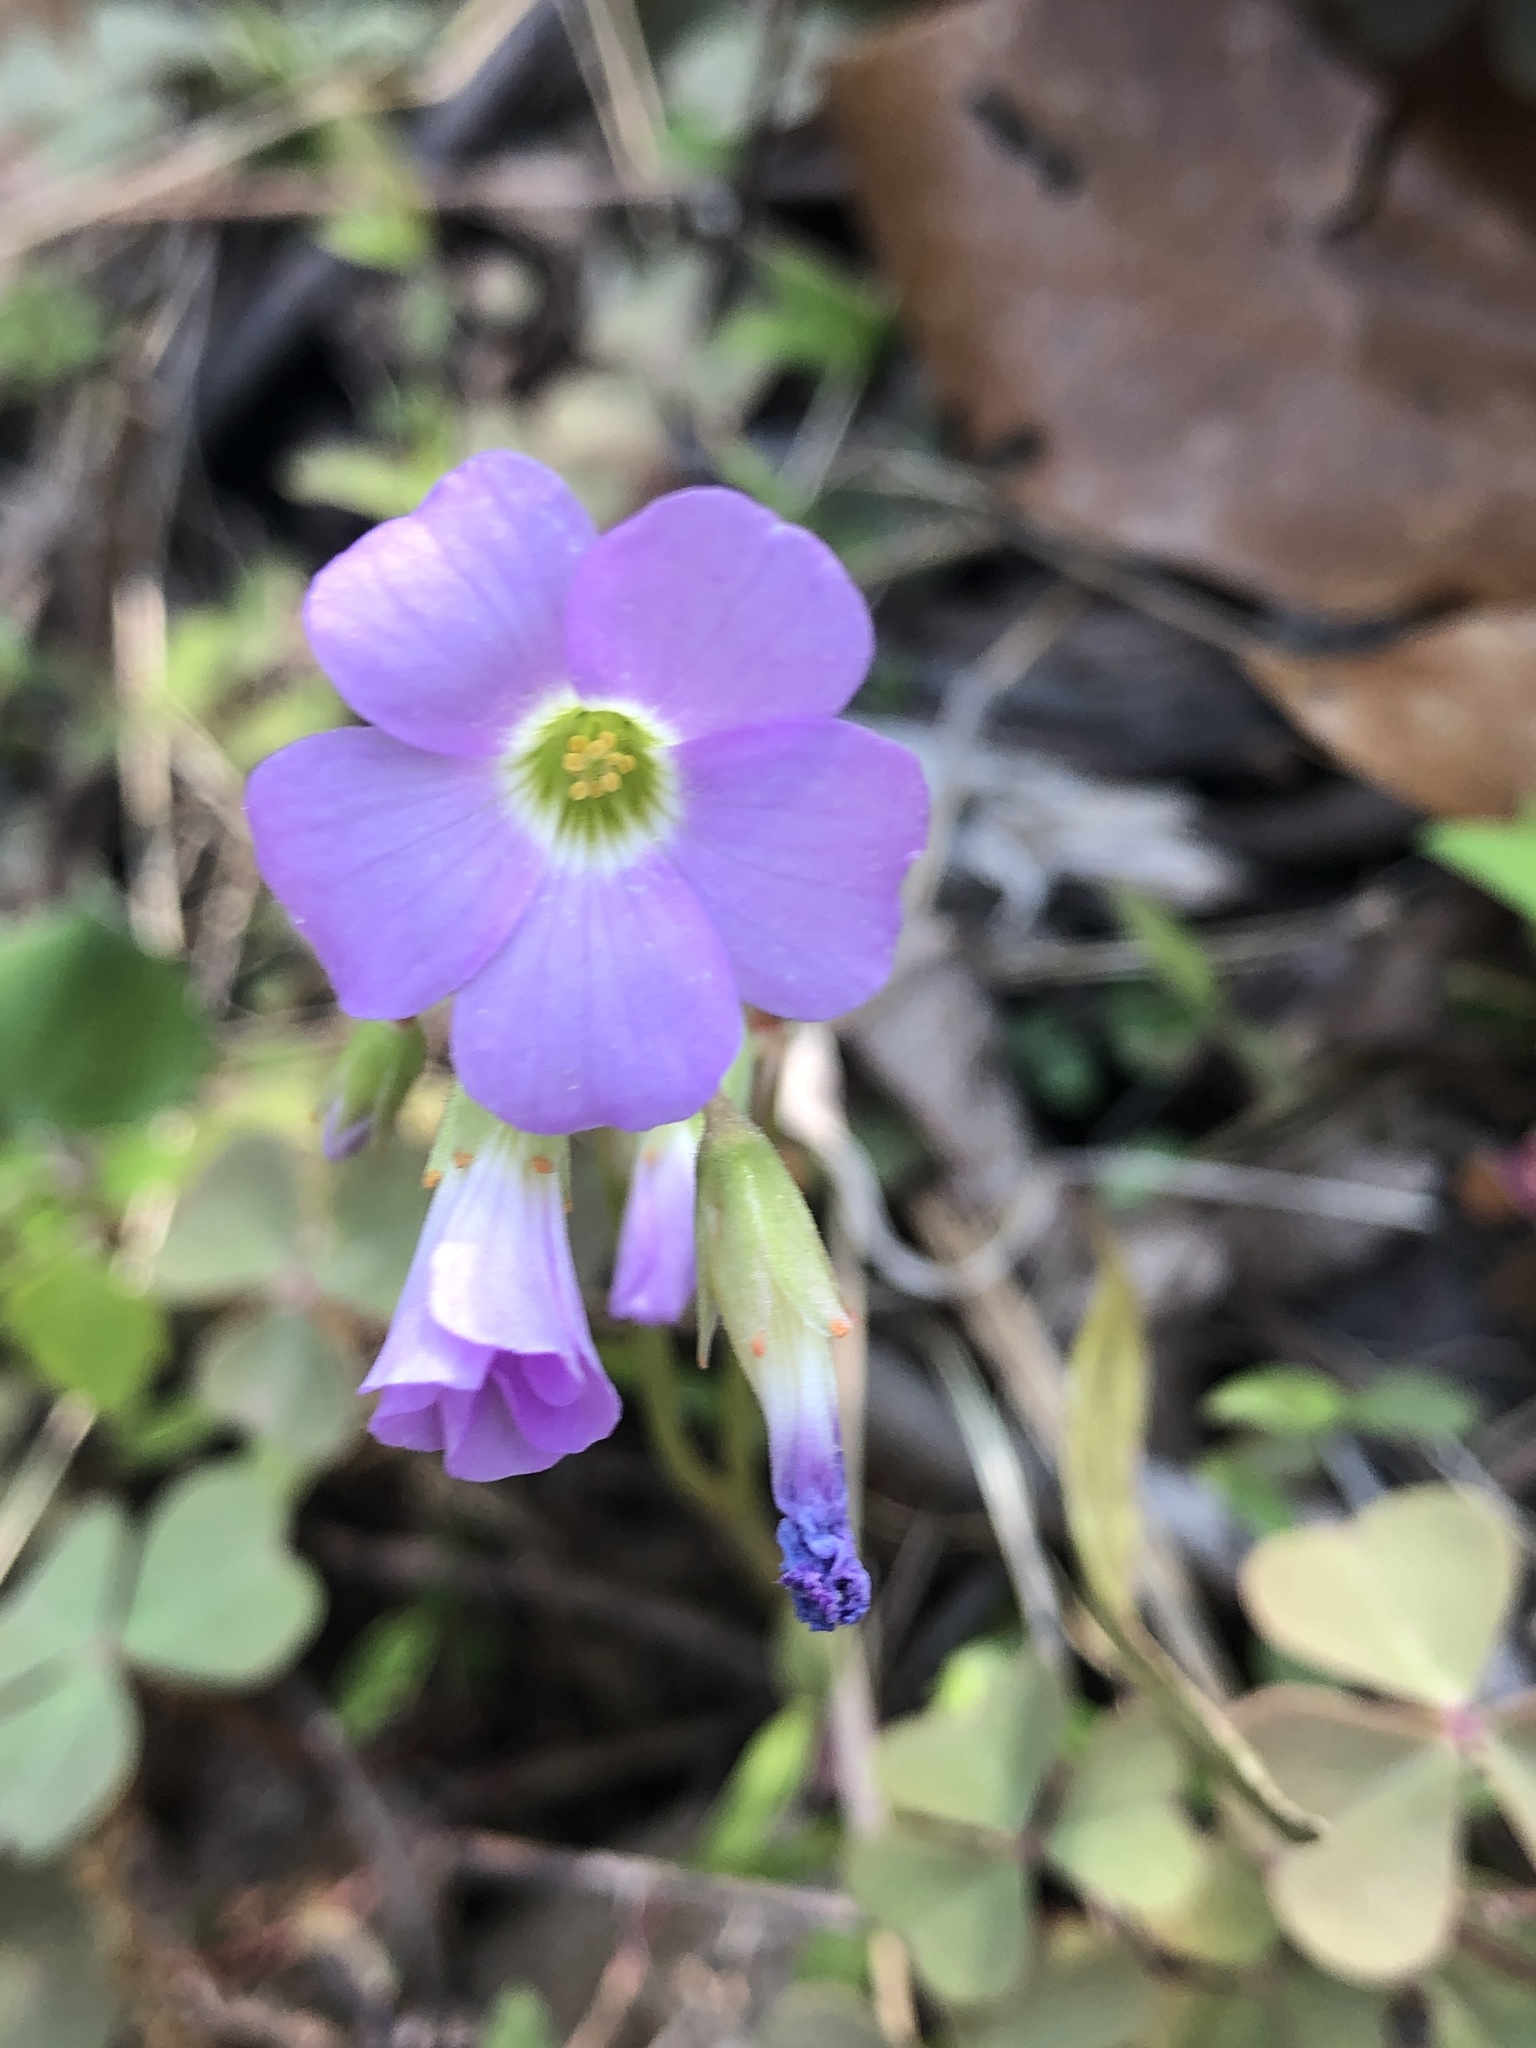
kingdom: Plantae
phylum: Tracheophyta
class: Magnoliopsida
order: Oxalidales
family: Oxalidaceae
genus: Oxalis
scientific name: Oxalis violacea
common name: Violet wood-sorrel
